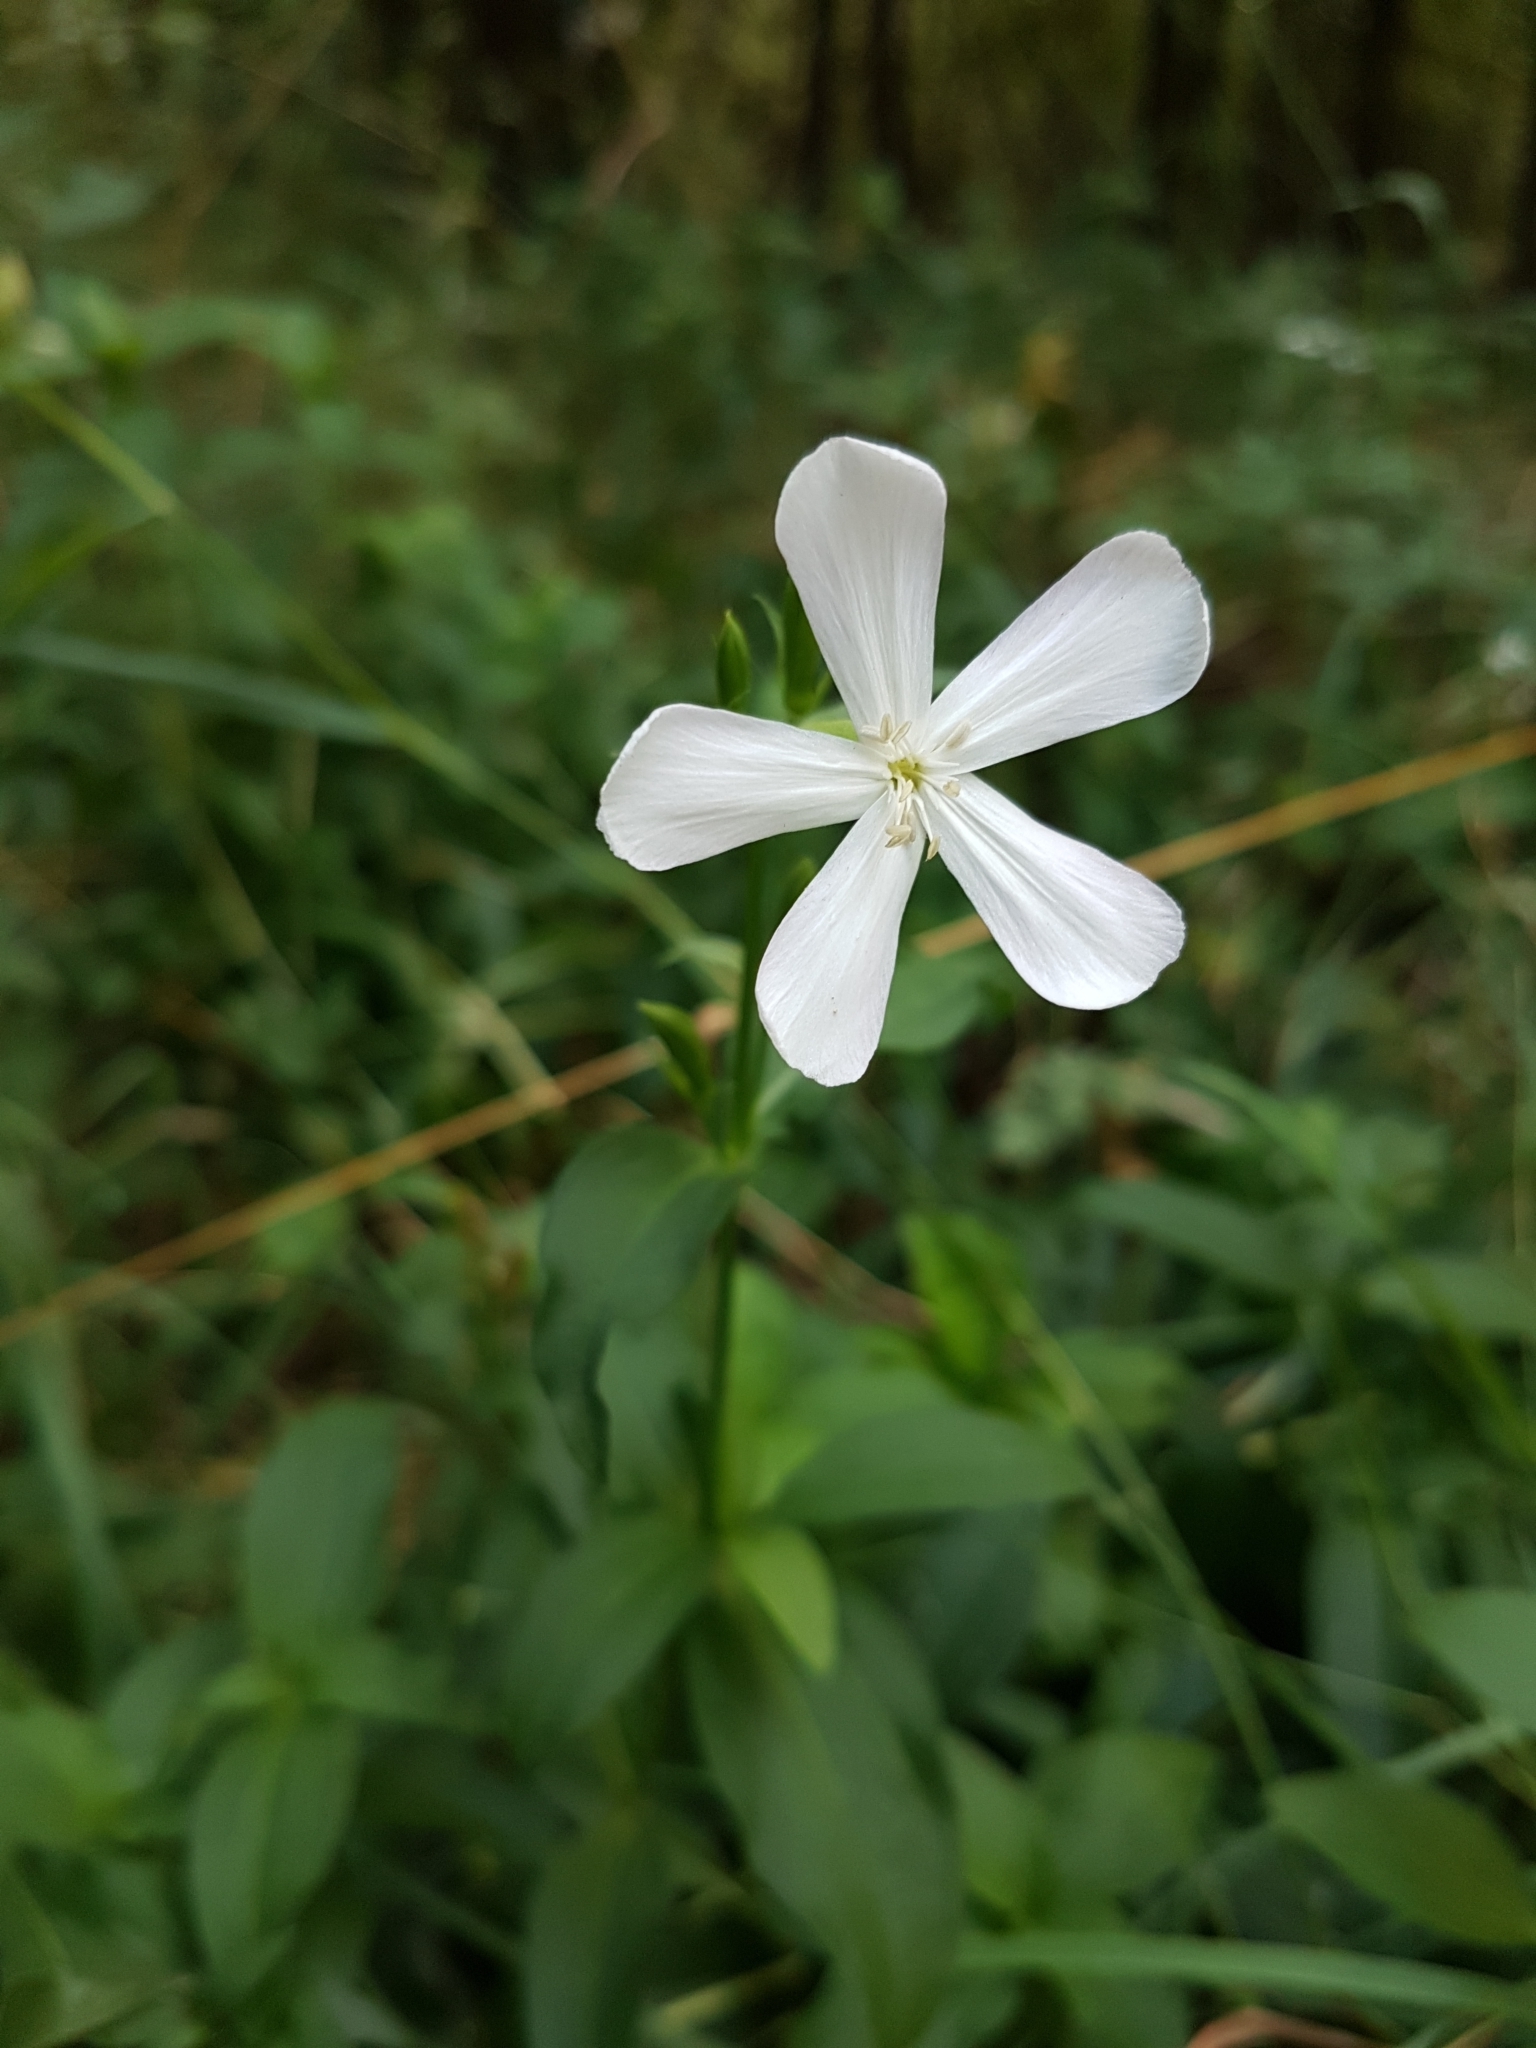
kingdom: Plantae
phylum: Tracheophyta
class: Magnoliopsida
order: Caryophyllales
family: Caryophyllaceae
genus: Saponaria
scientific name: Saponaria officinalis
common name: Soapwort
